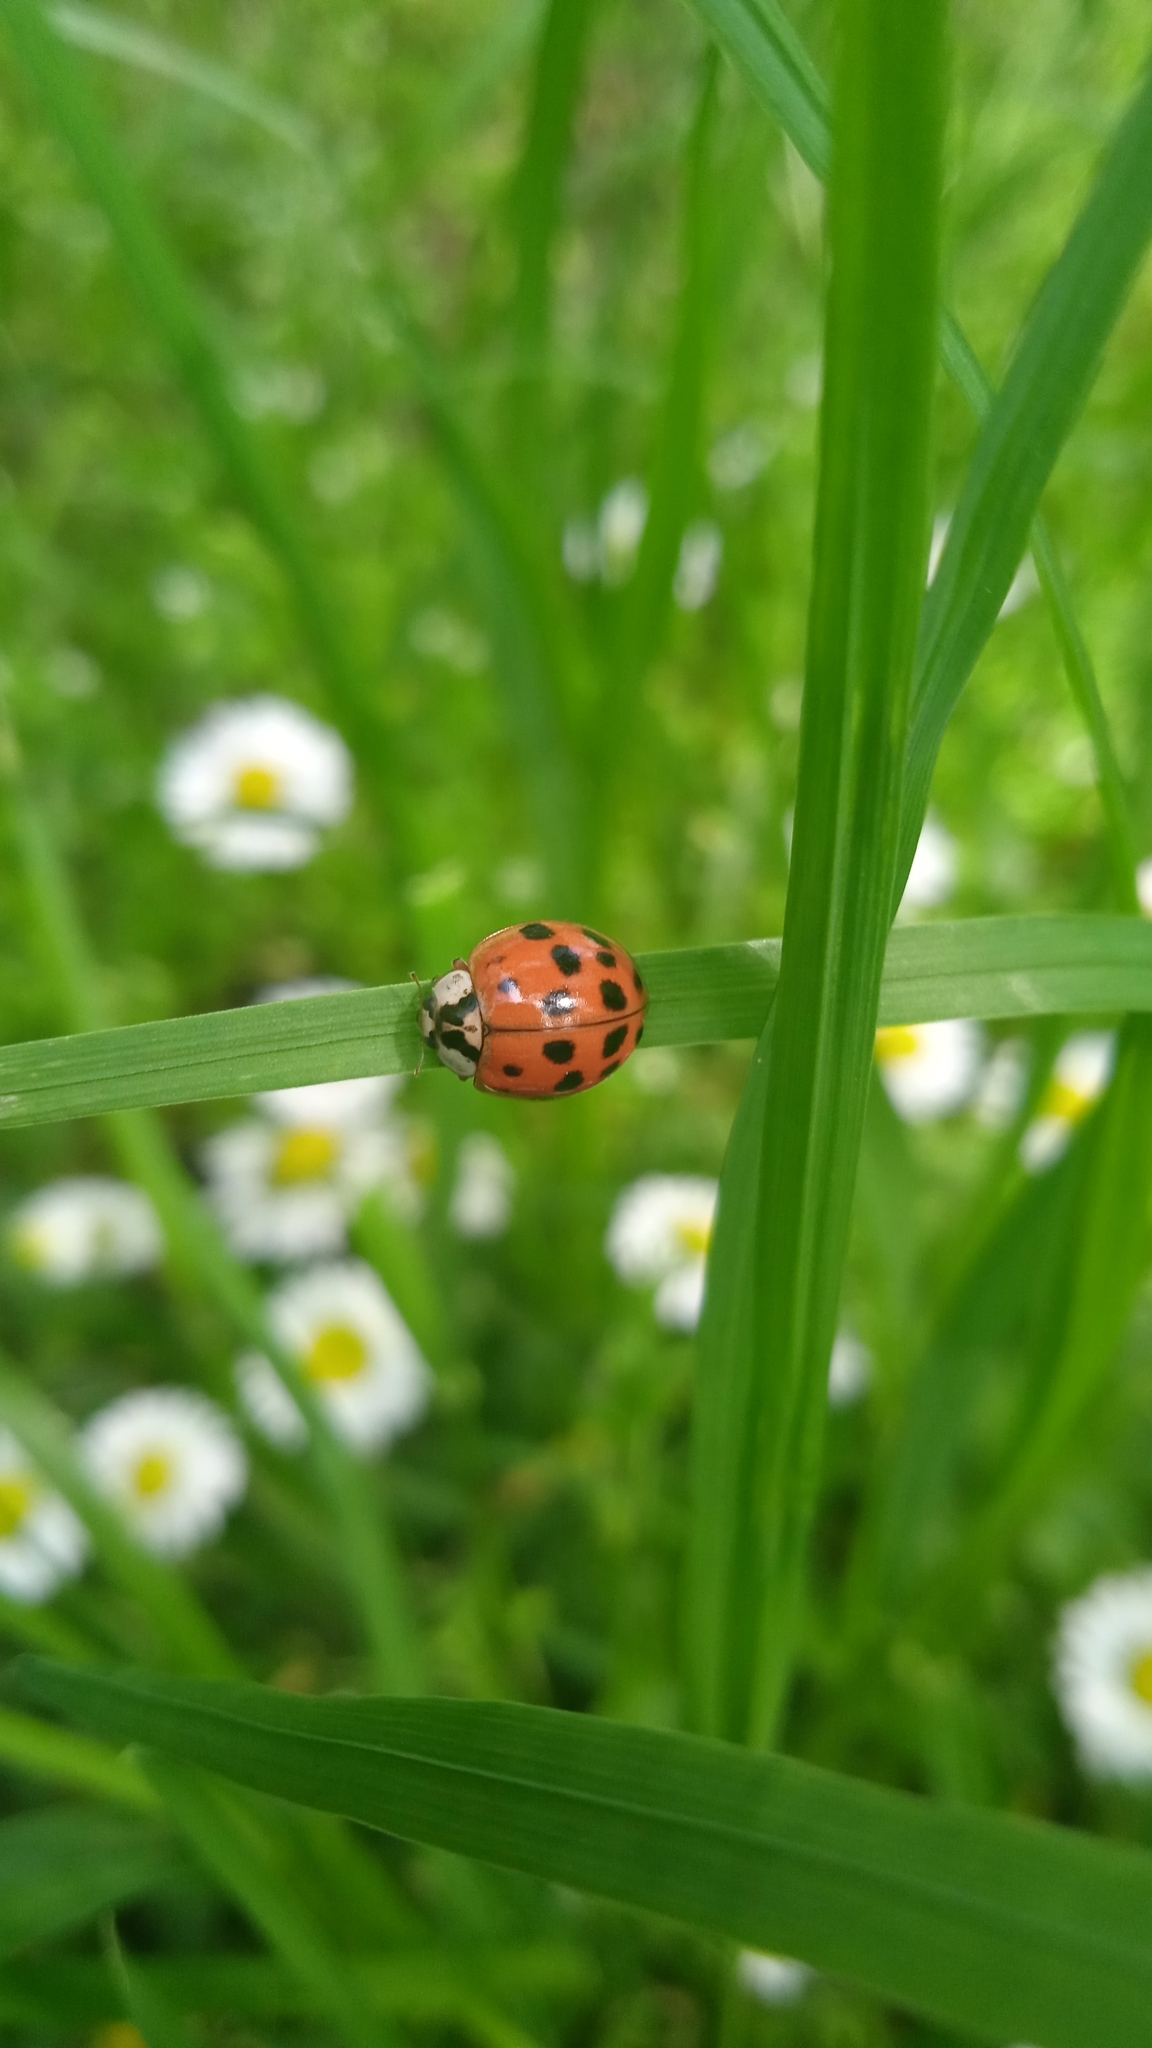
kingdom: Animalia
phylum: Arthropoda
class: Insecta
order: Coleoptera
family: Coccinellidae
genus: Harmonia
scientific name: Harmonia axyridis
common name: Harlequin ladybird
